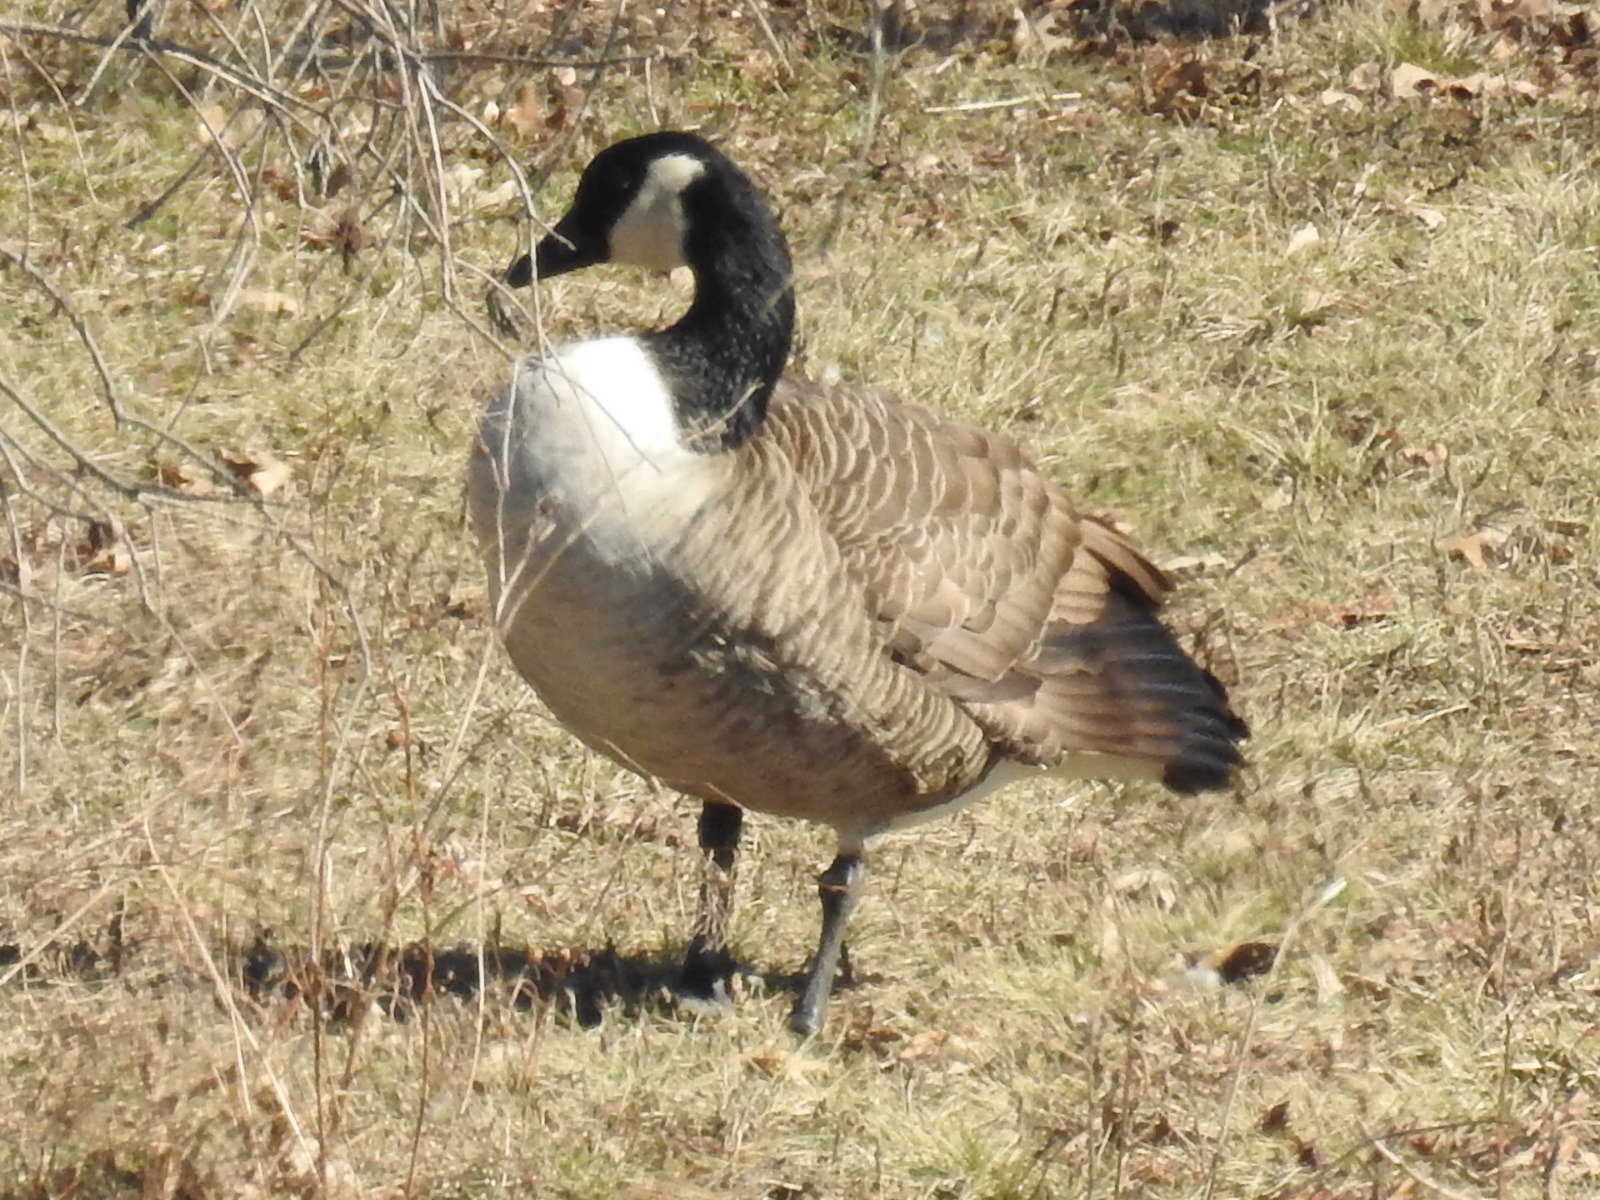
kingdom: Animalia
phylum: Chordata
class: Aves
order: Anseriformes
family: Anatidae
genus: Branta
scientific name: Branta canadensis
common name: Canada goose
